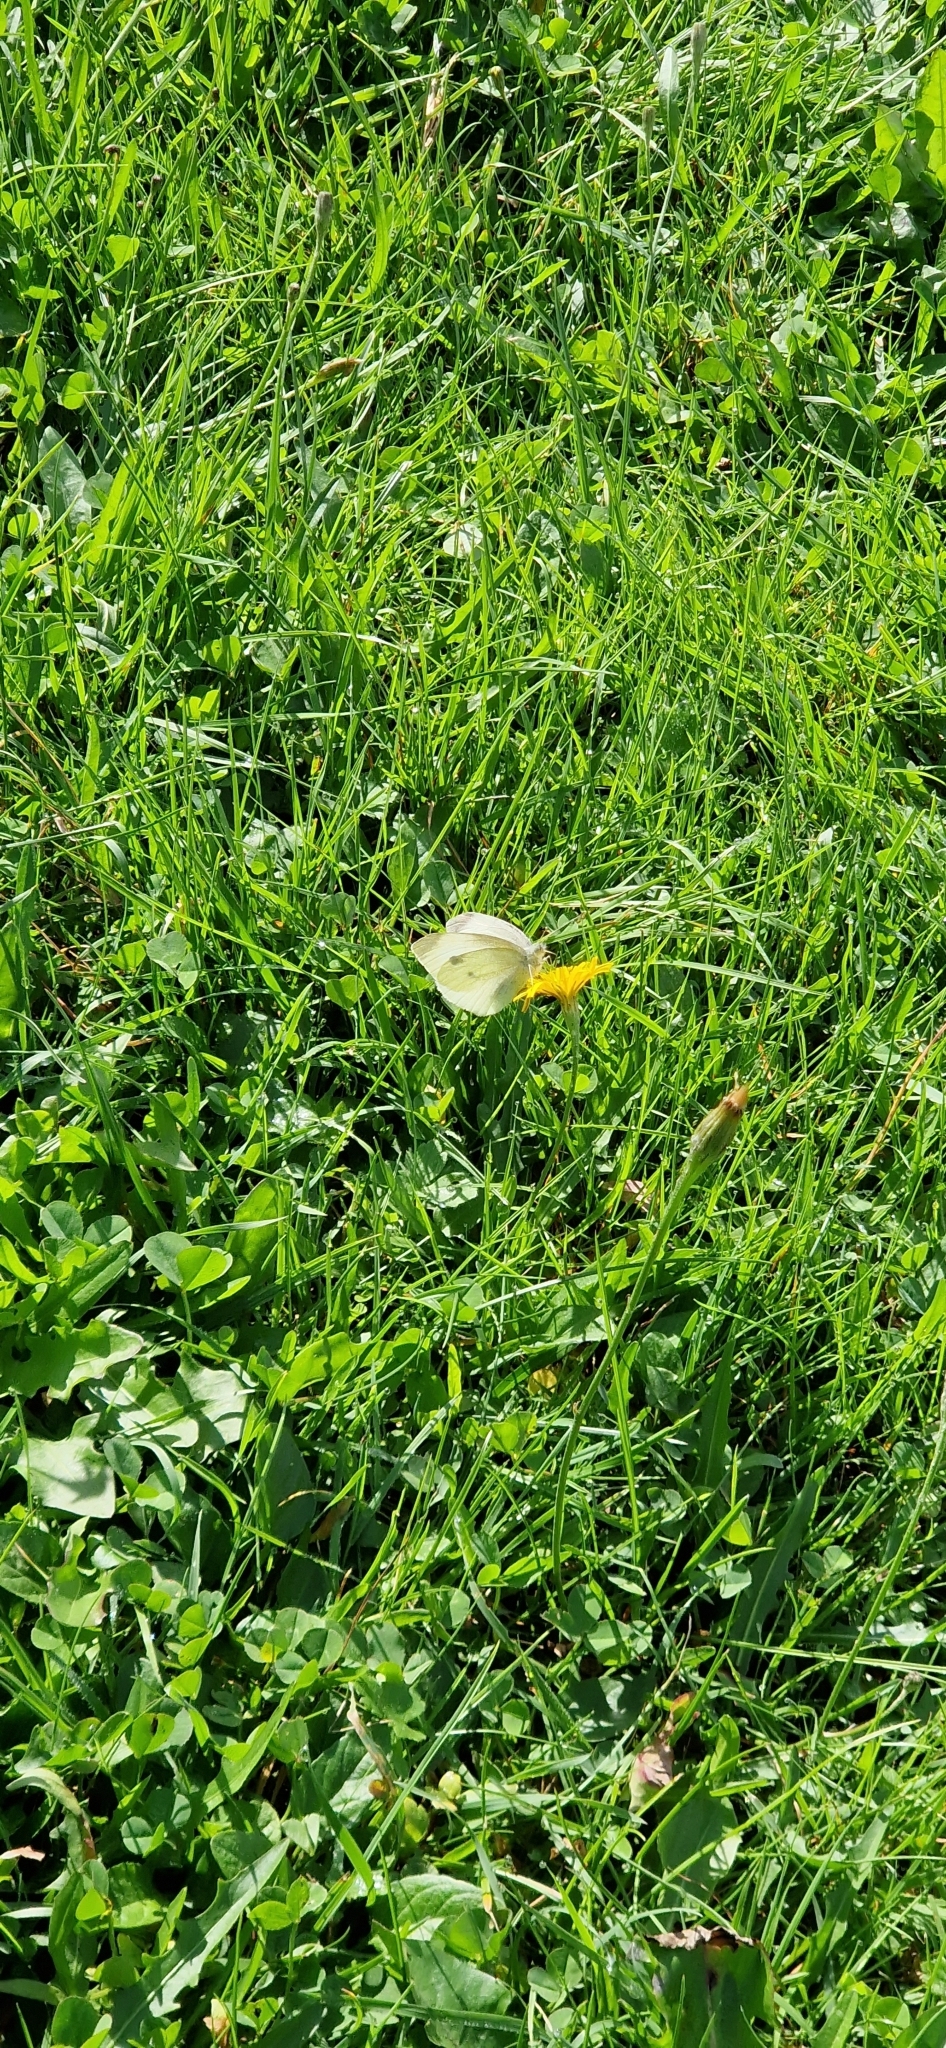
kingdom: Animalia
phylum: Arthropoda
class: Insecta
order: Lepidoptera
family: Pieridae
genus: Pieris
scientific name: Pieris rapae
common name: Small white
